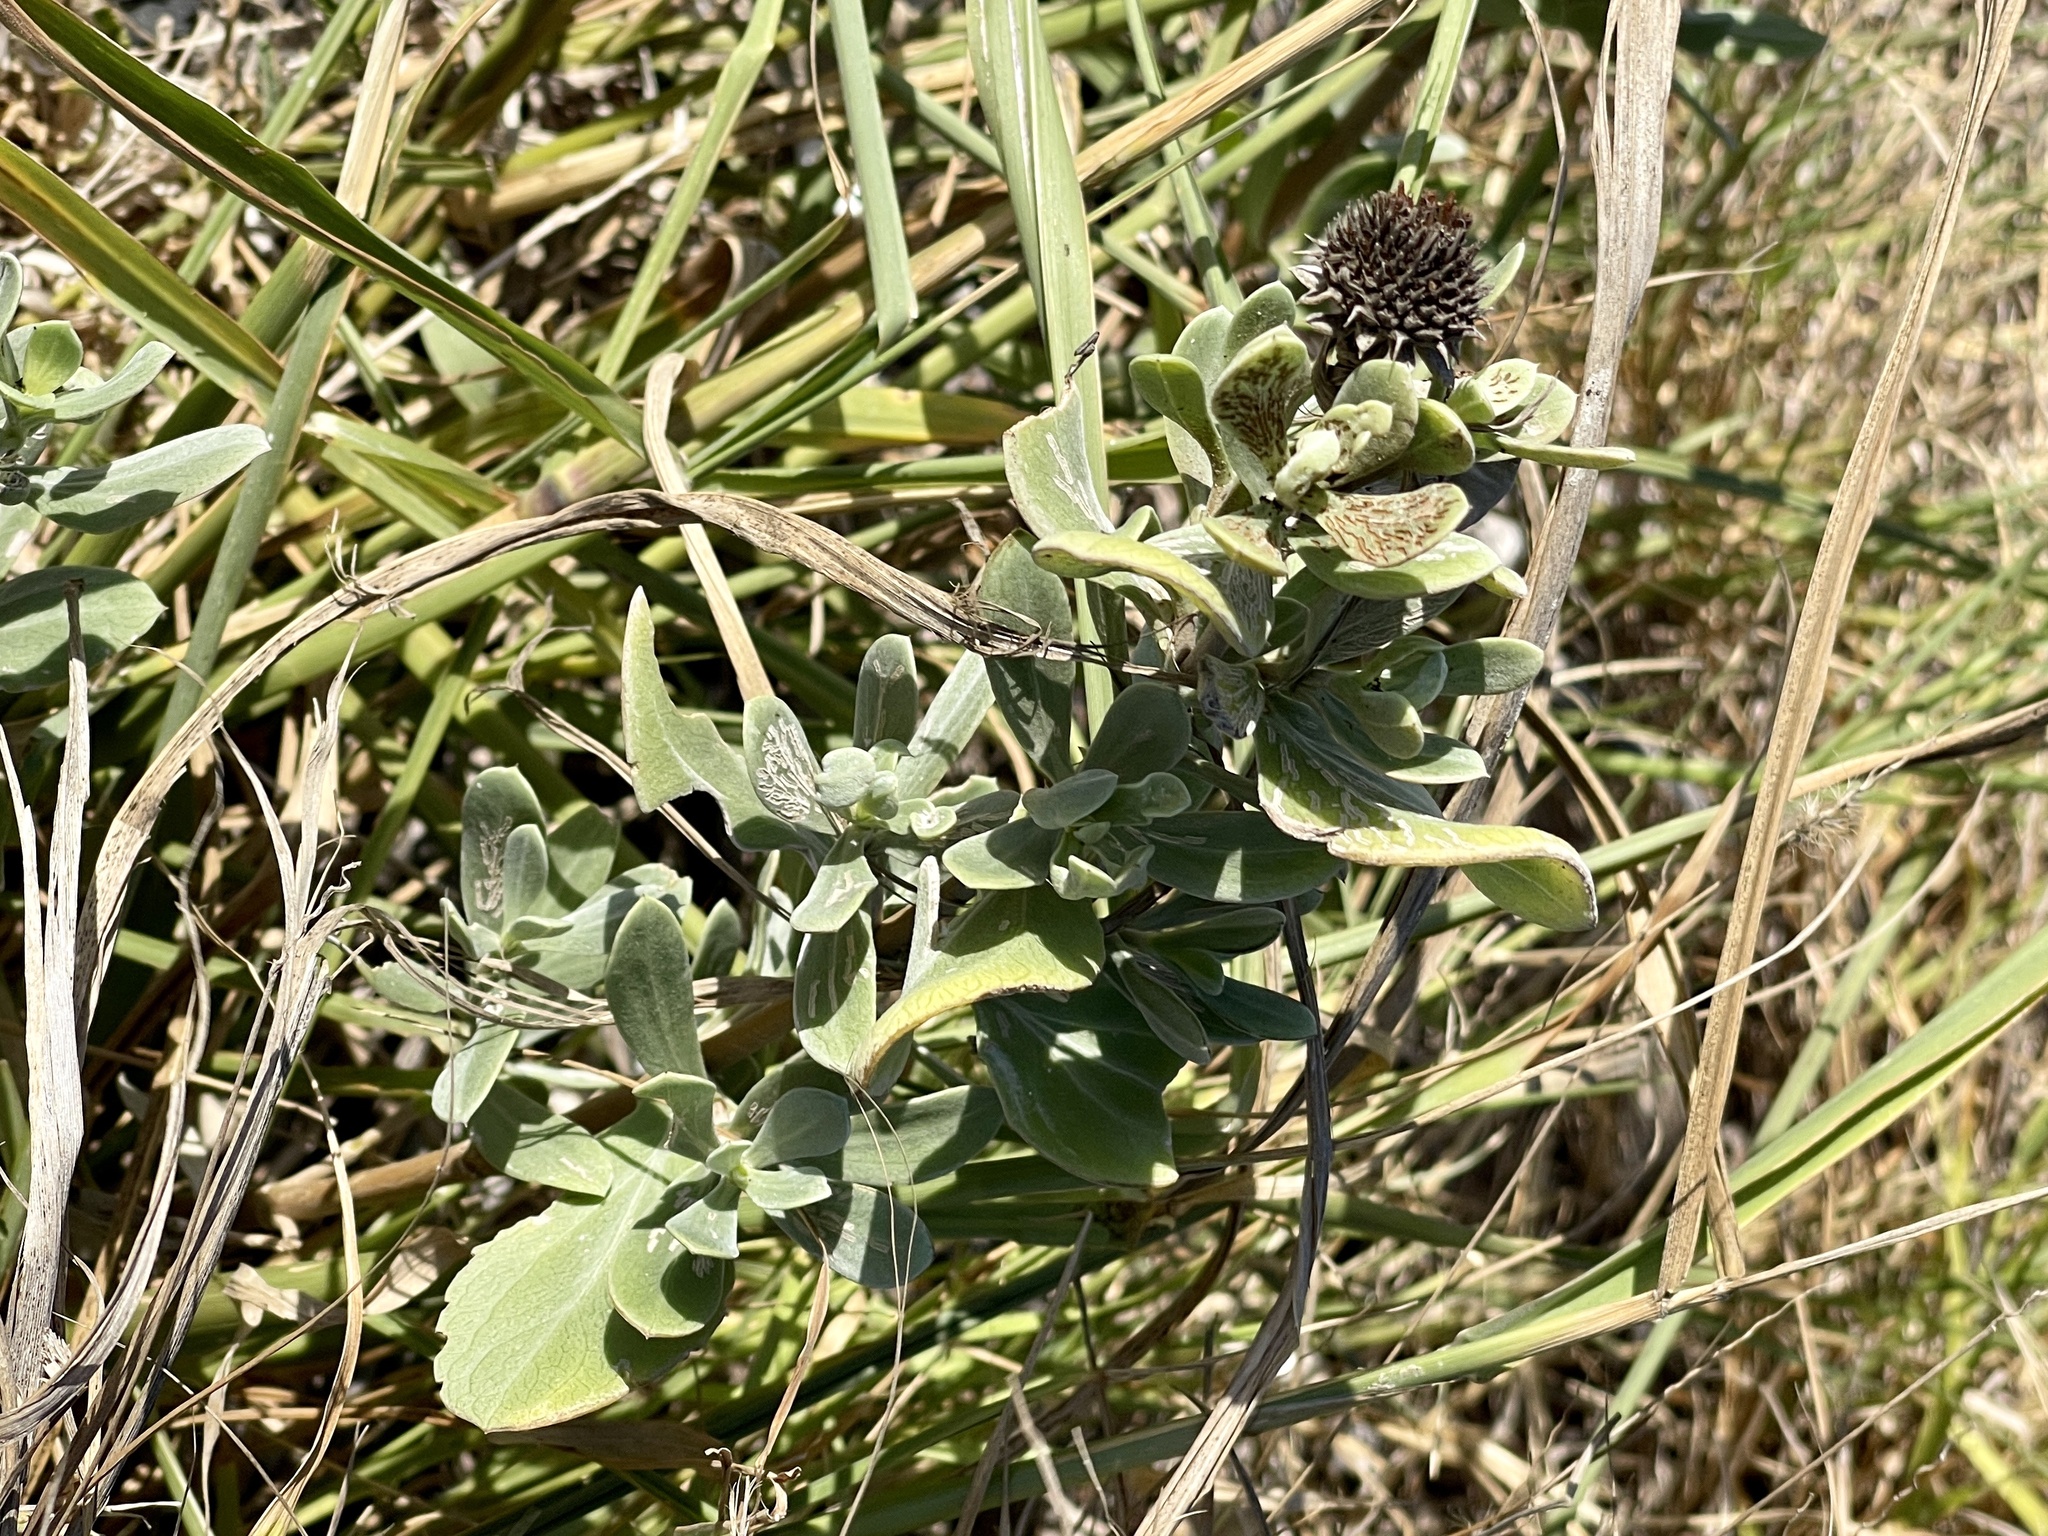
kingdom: Plantae
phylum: Tracheophyta
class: Magnoliopsida
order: Asterales
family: Asteraceae
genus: Borrichia
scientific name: Borrichia frutescens
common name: Sea oxeye
